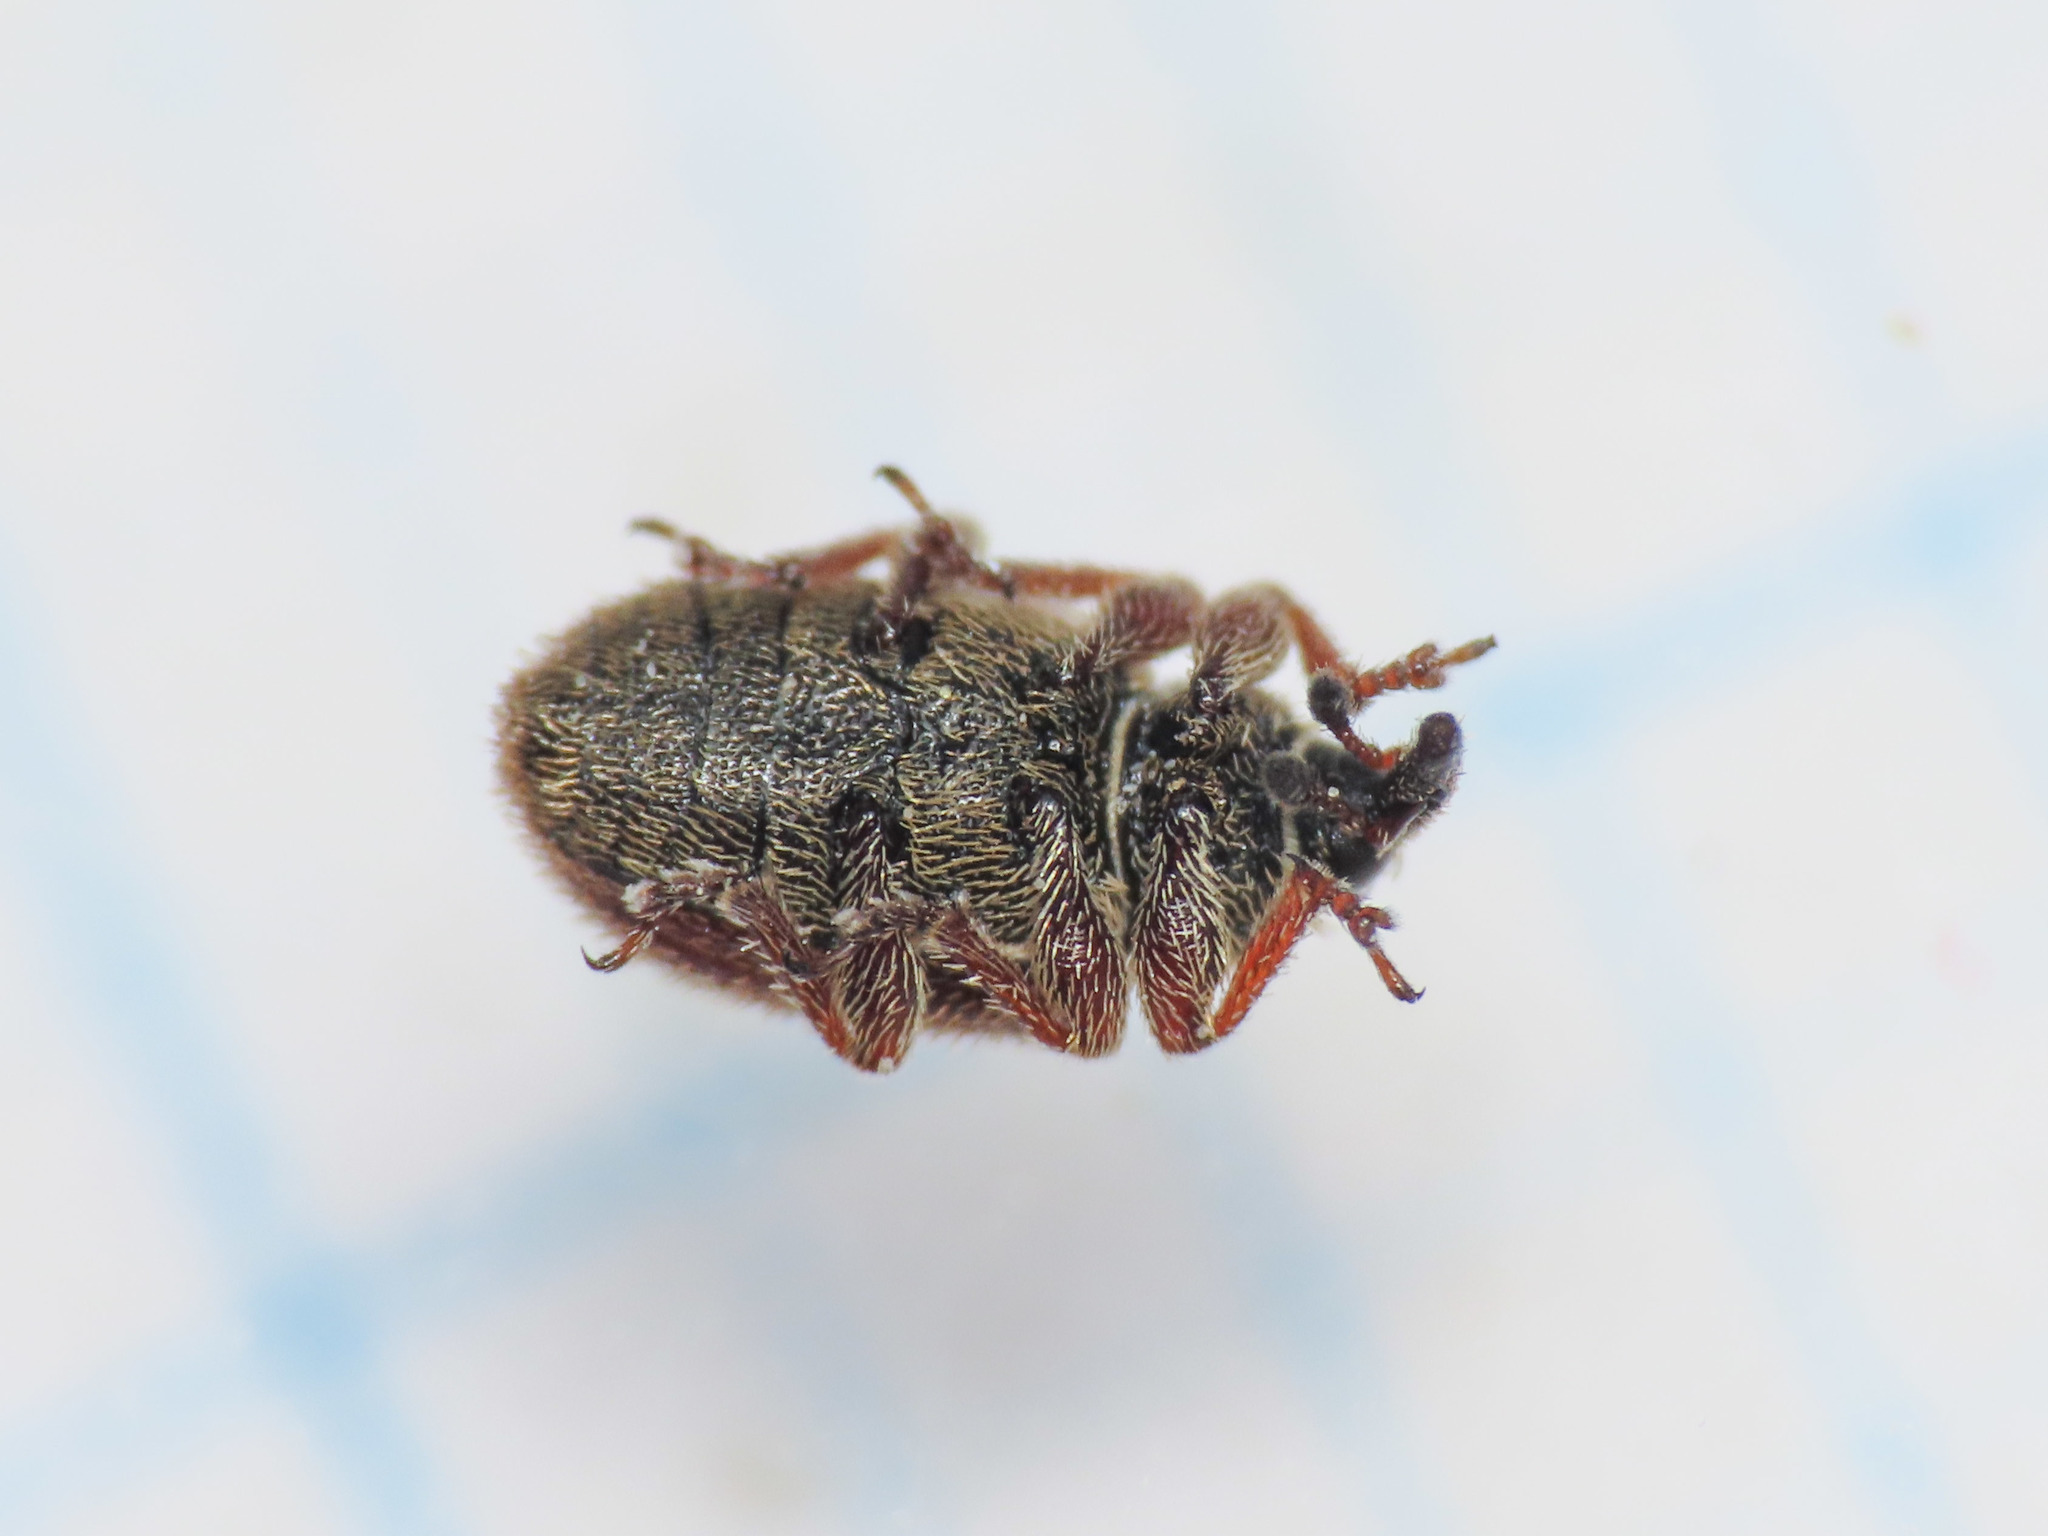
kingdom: Animalia
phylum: Arthropoda
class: Insecta
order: Coleoptera
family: Curculionidae
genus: Gymnetron
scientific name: Gymnetron rotundicolle
